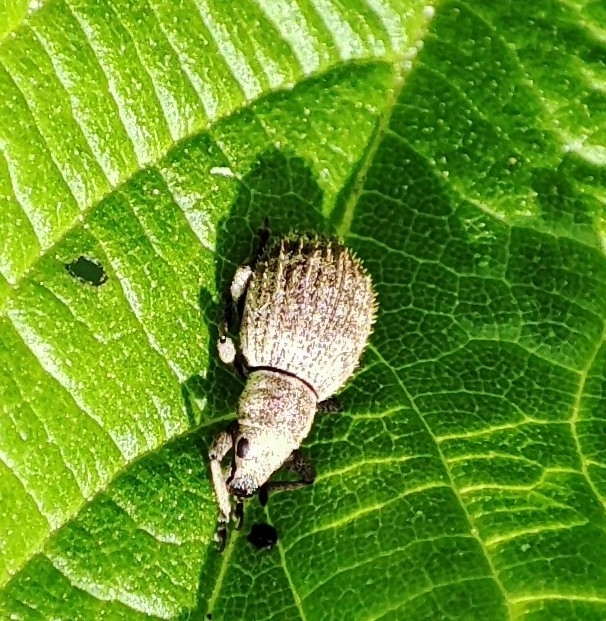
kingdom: Animalia
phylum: Arthropoda
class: Insecta
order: Coleoptera
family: Curculionidae
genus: Sciaphilus
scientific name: Sciaphilus asperatus
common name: Weevil
